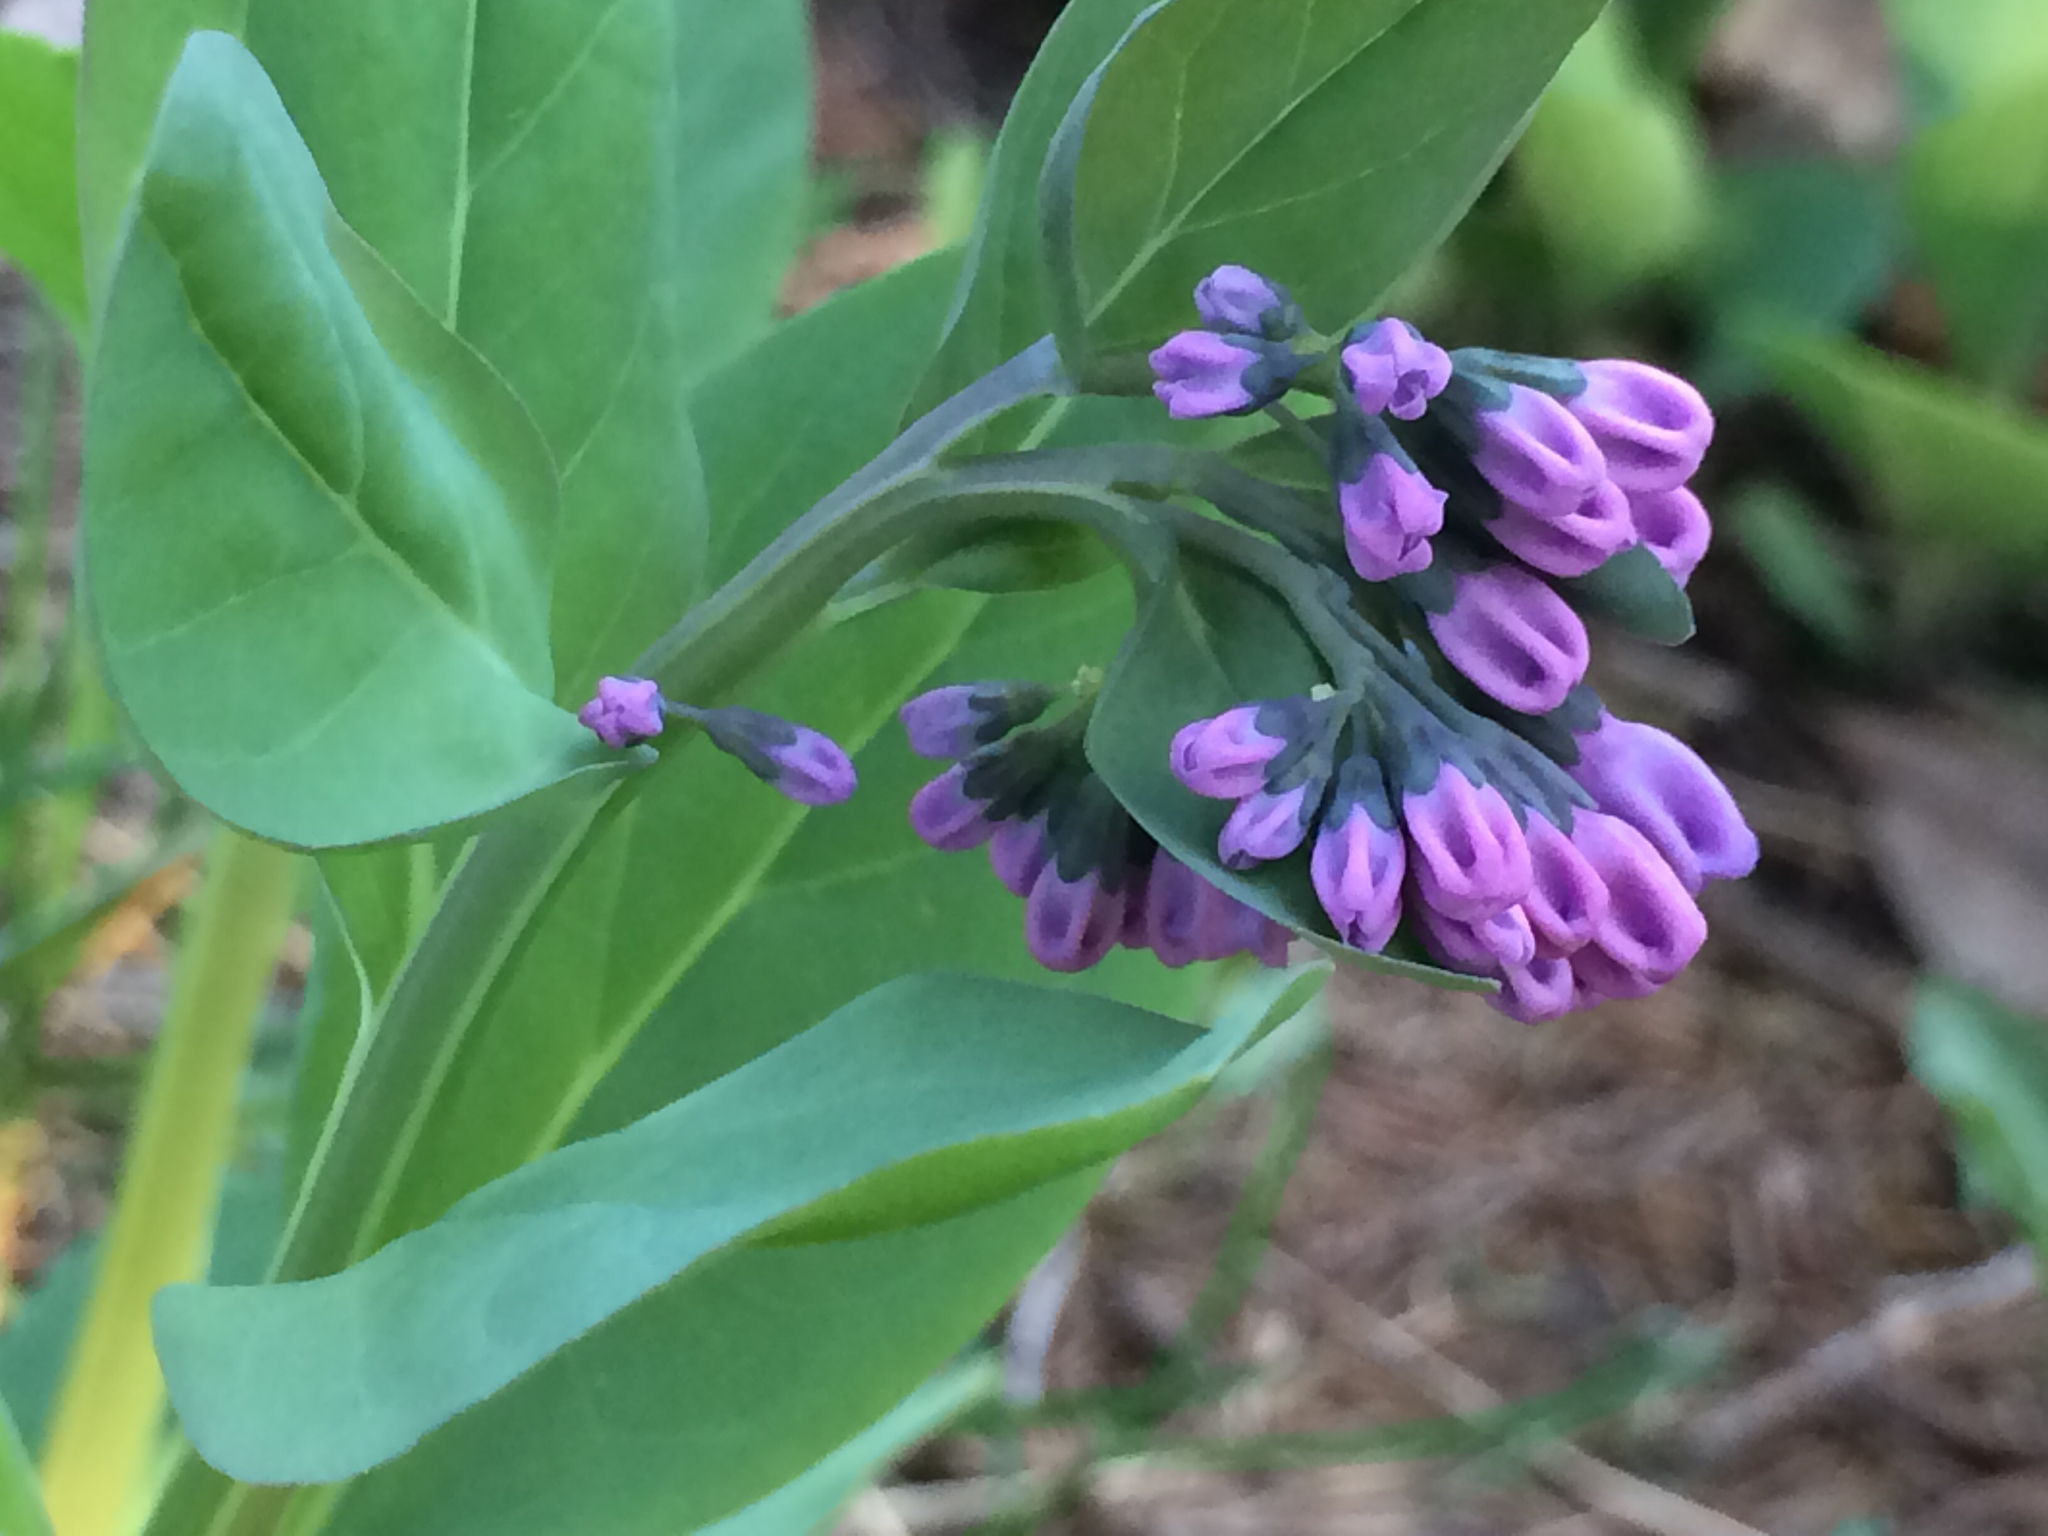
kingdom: Plantae
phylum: Tracheophyta
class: Magnoliopsida
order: Boraginales
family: Boraginaceae
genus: Mertensia
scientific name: Mertensia virginica
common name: Virginia bluebells
